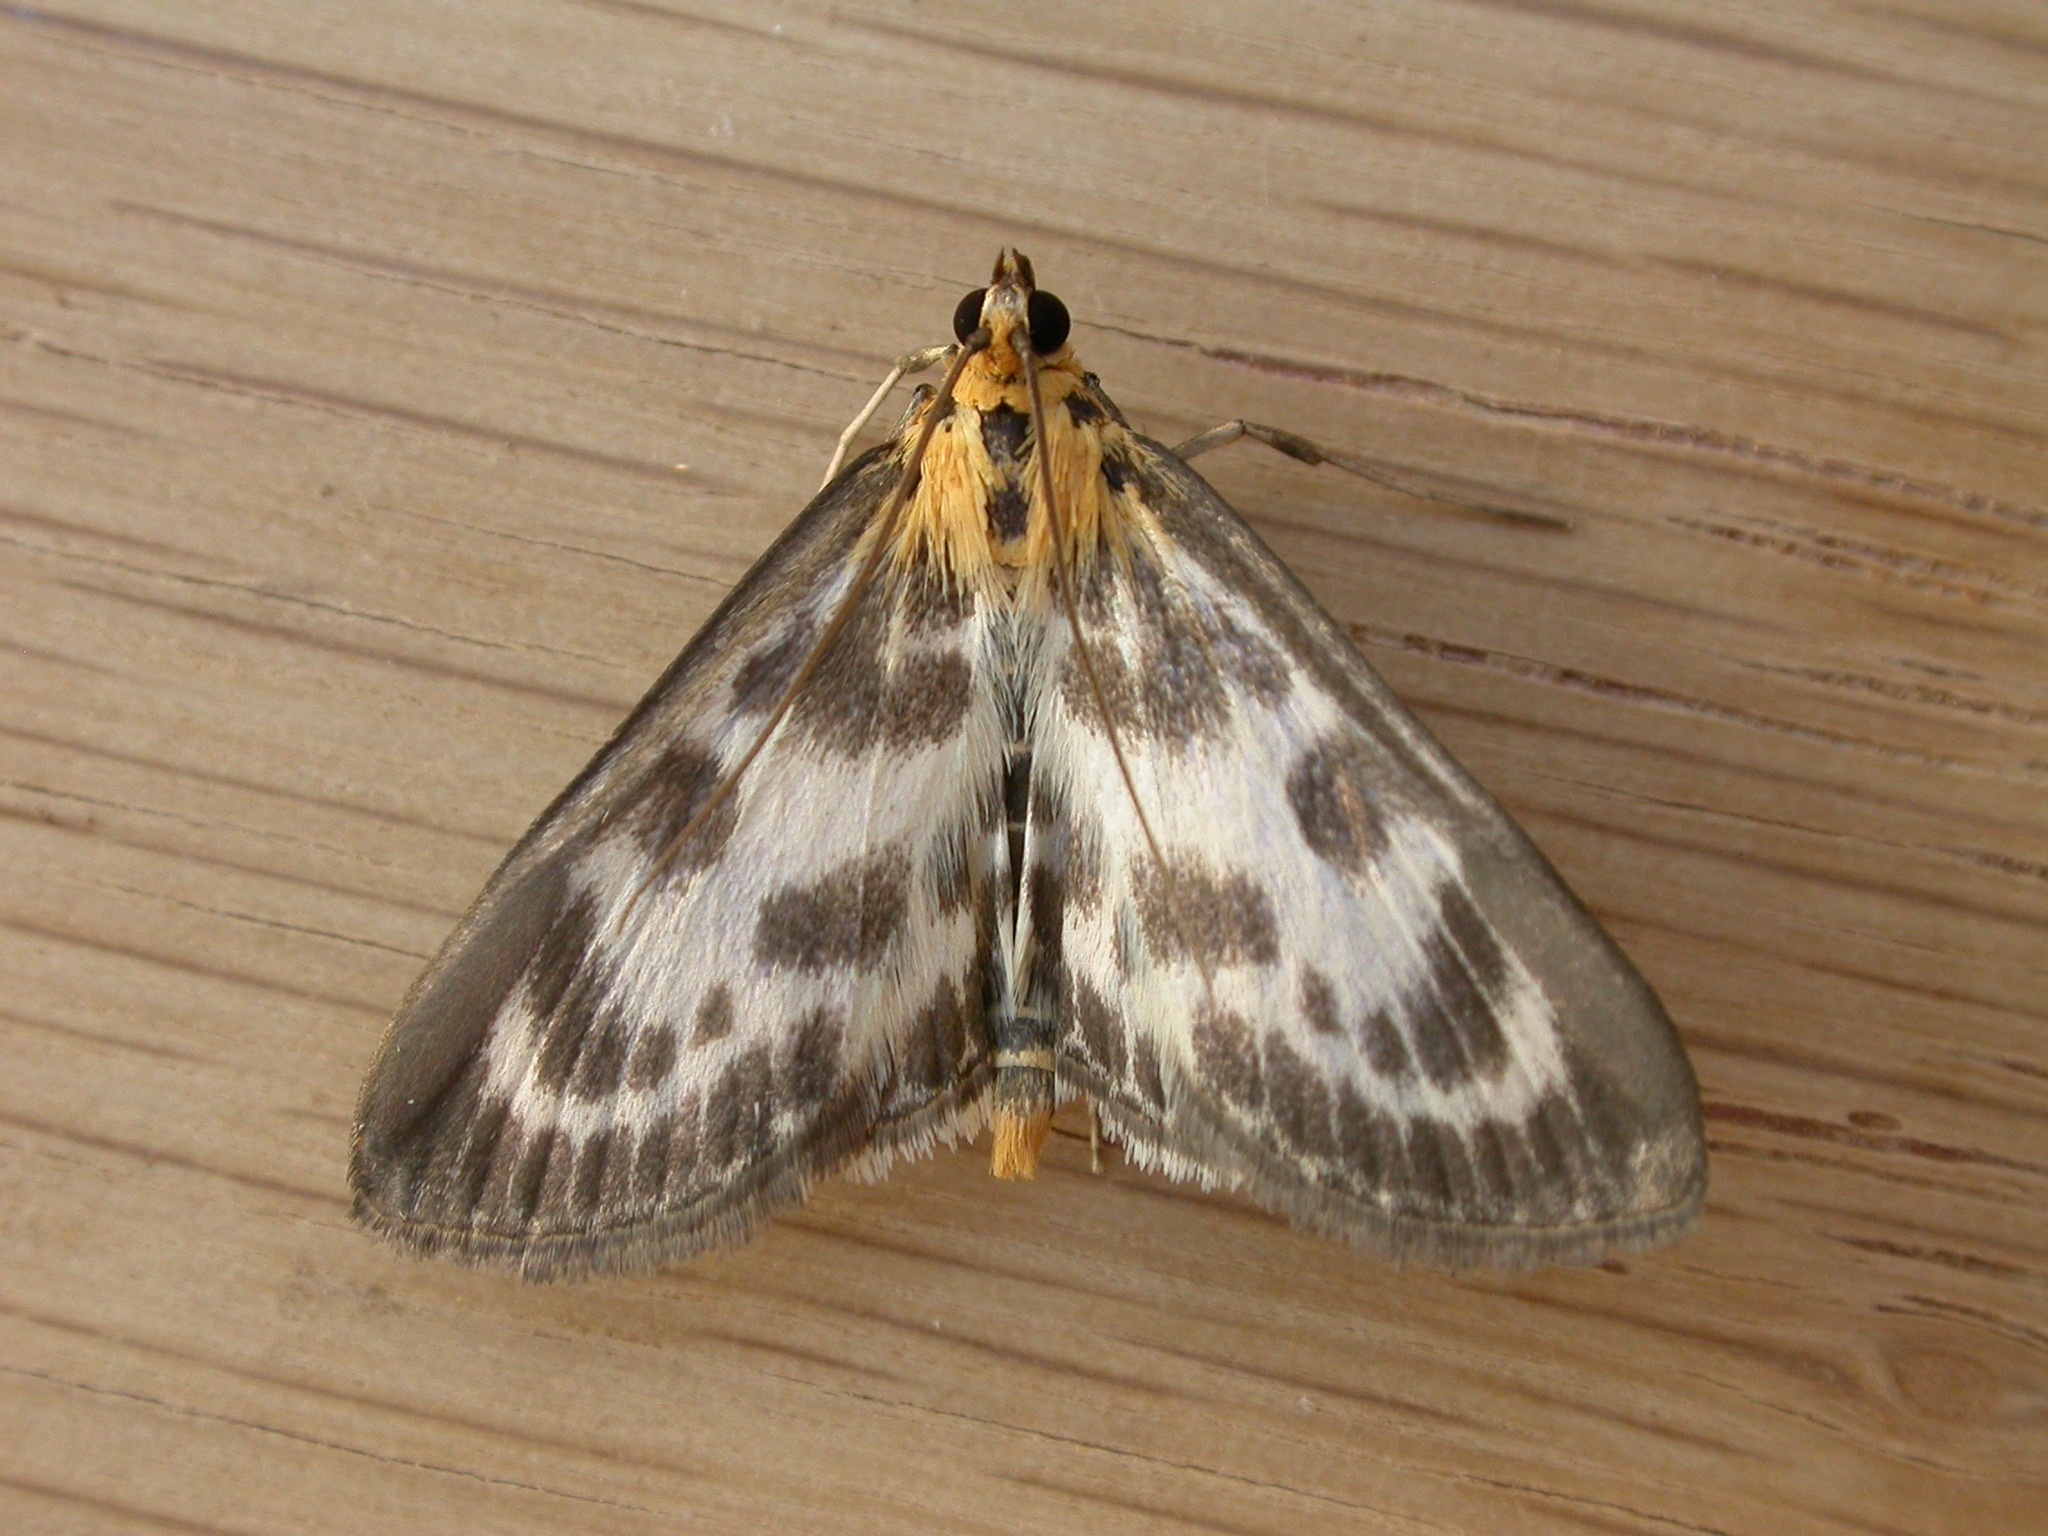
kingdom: Animalia
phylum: Arthropoda
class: Insecta
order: Lepidoptera
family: Crambidae
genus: Anania
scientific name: Anania hortulata
